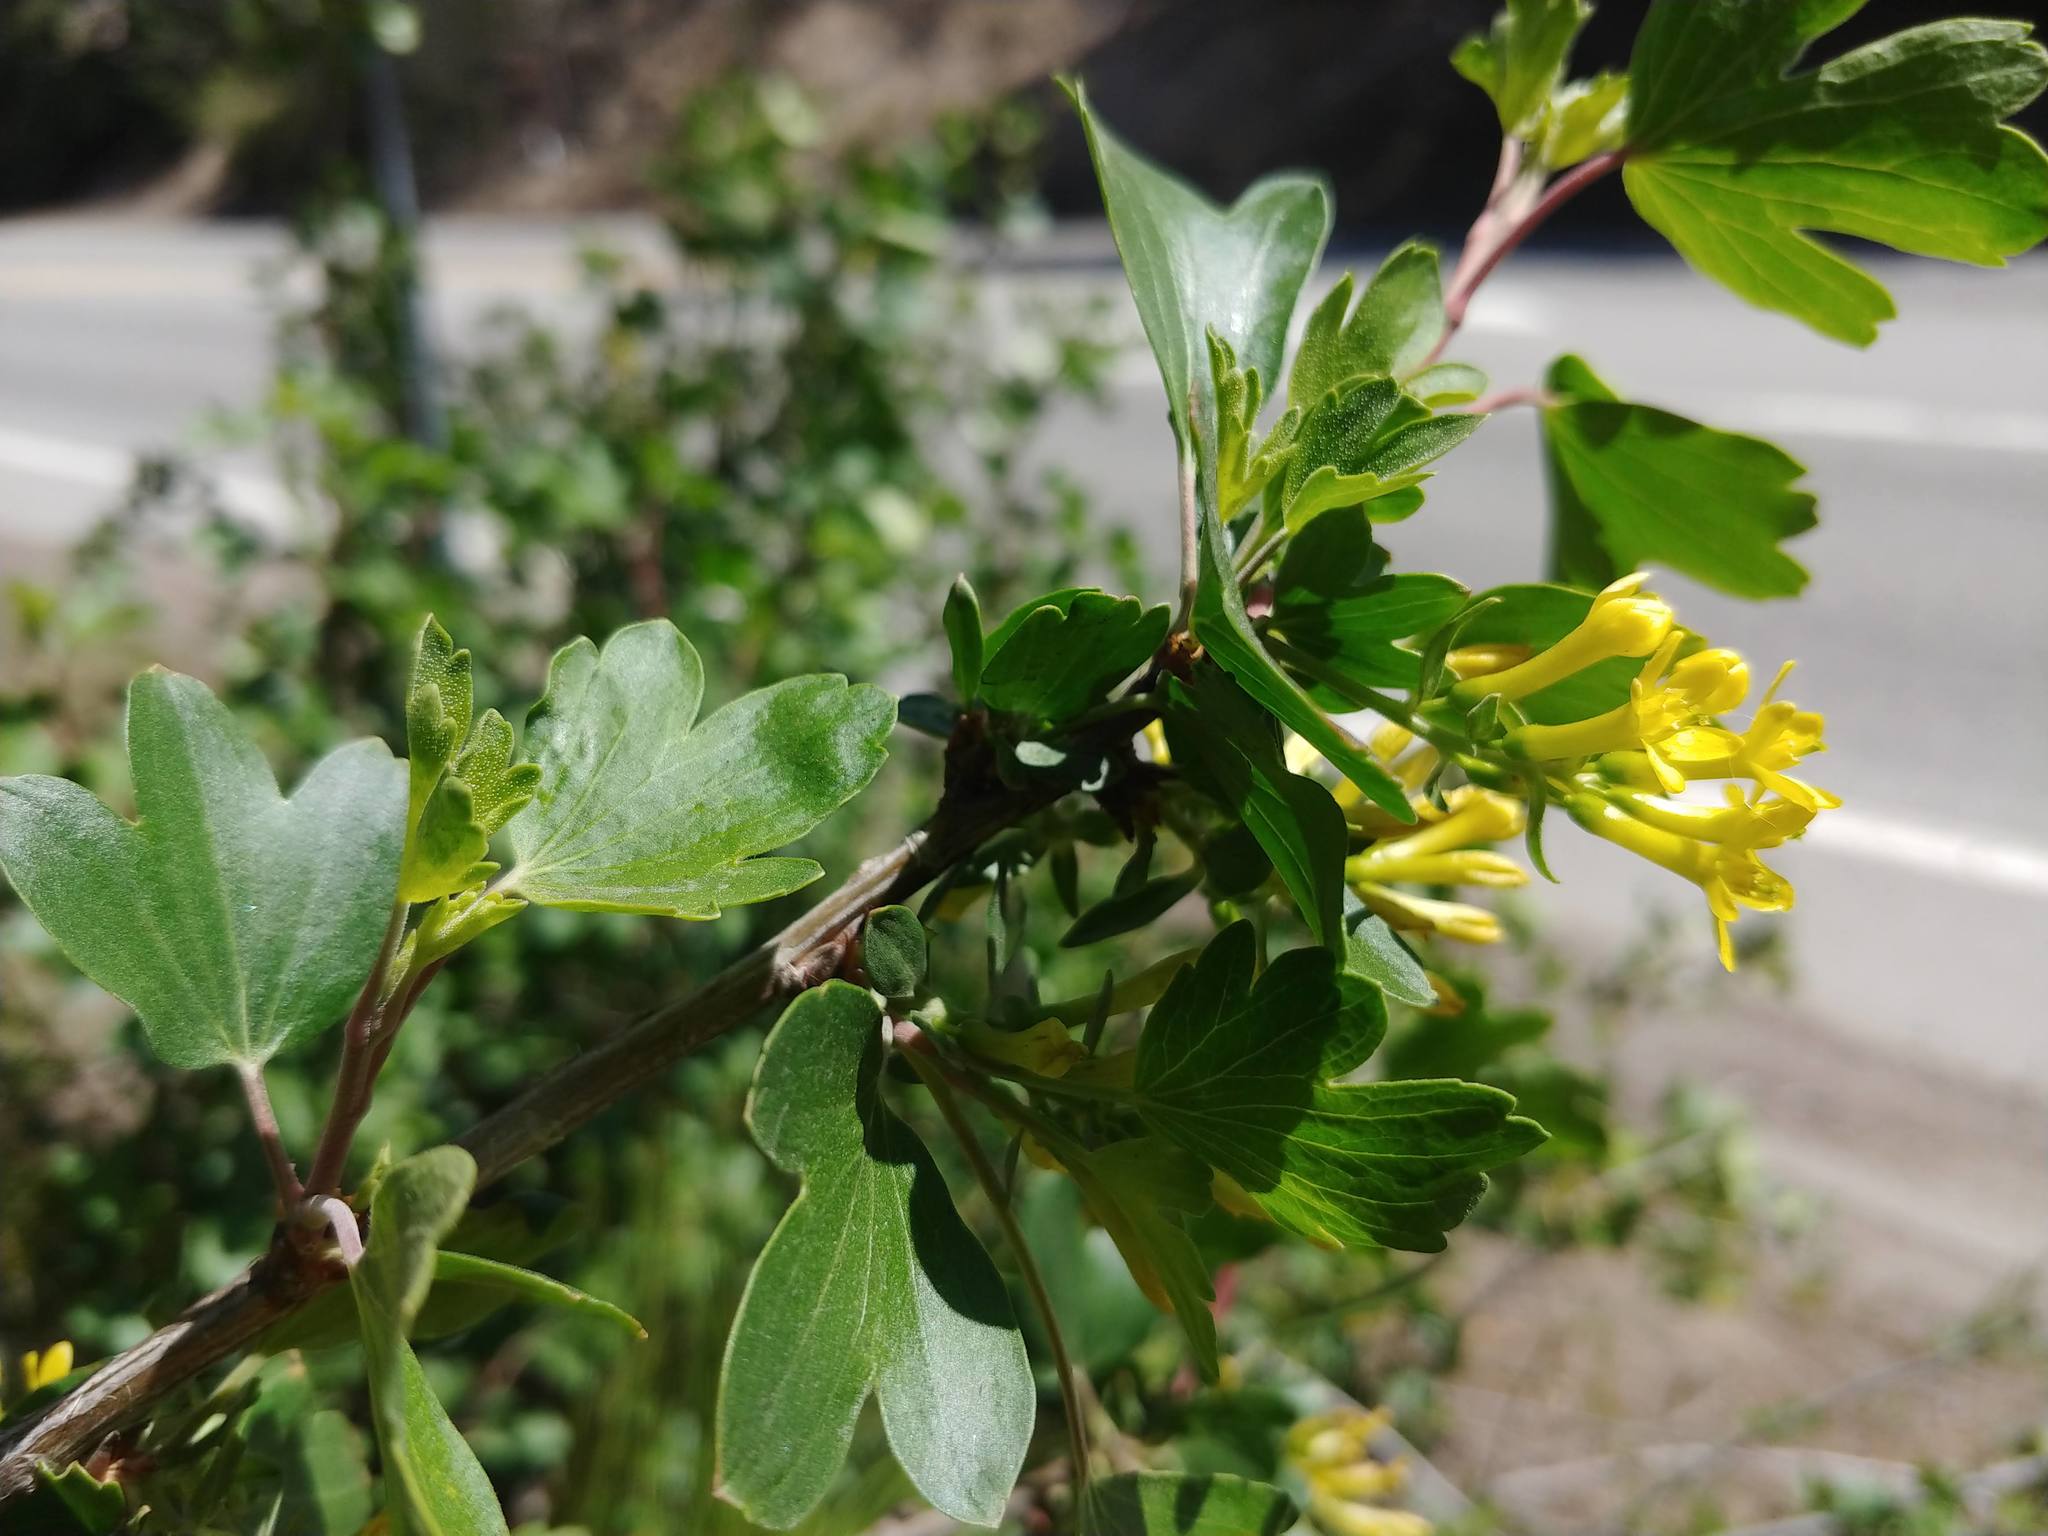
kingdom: Plantae
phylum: Tracheophyta
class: Magnoliopsida
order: Saxifragales
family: Grossulariaceae
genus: Ribes
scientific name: Ribes aureum
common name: Golden currant
